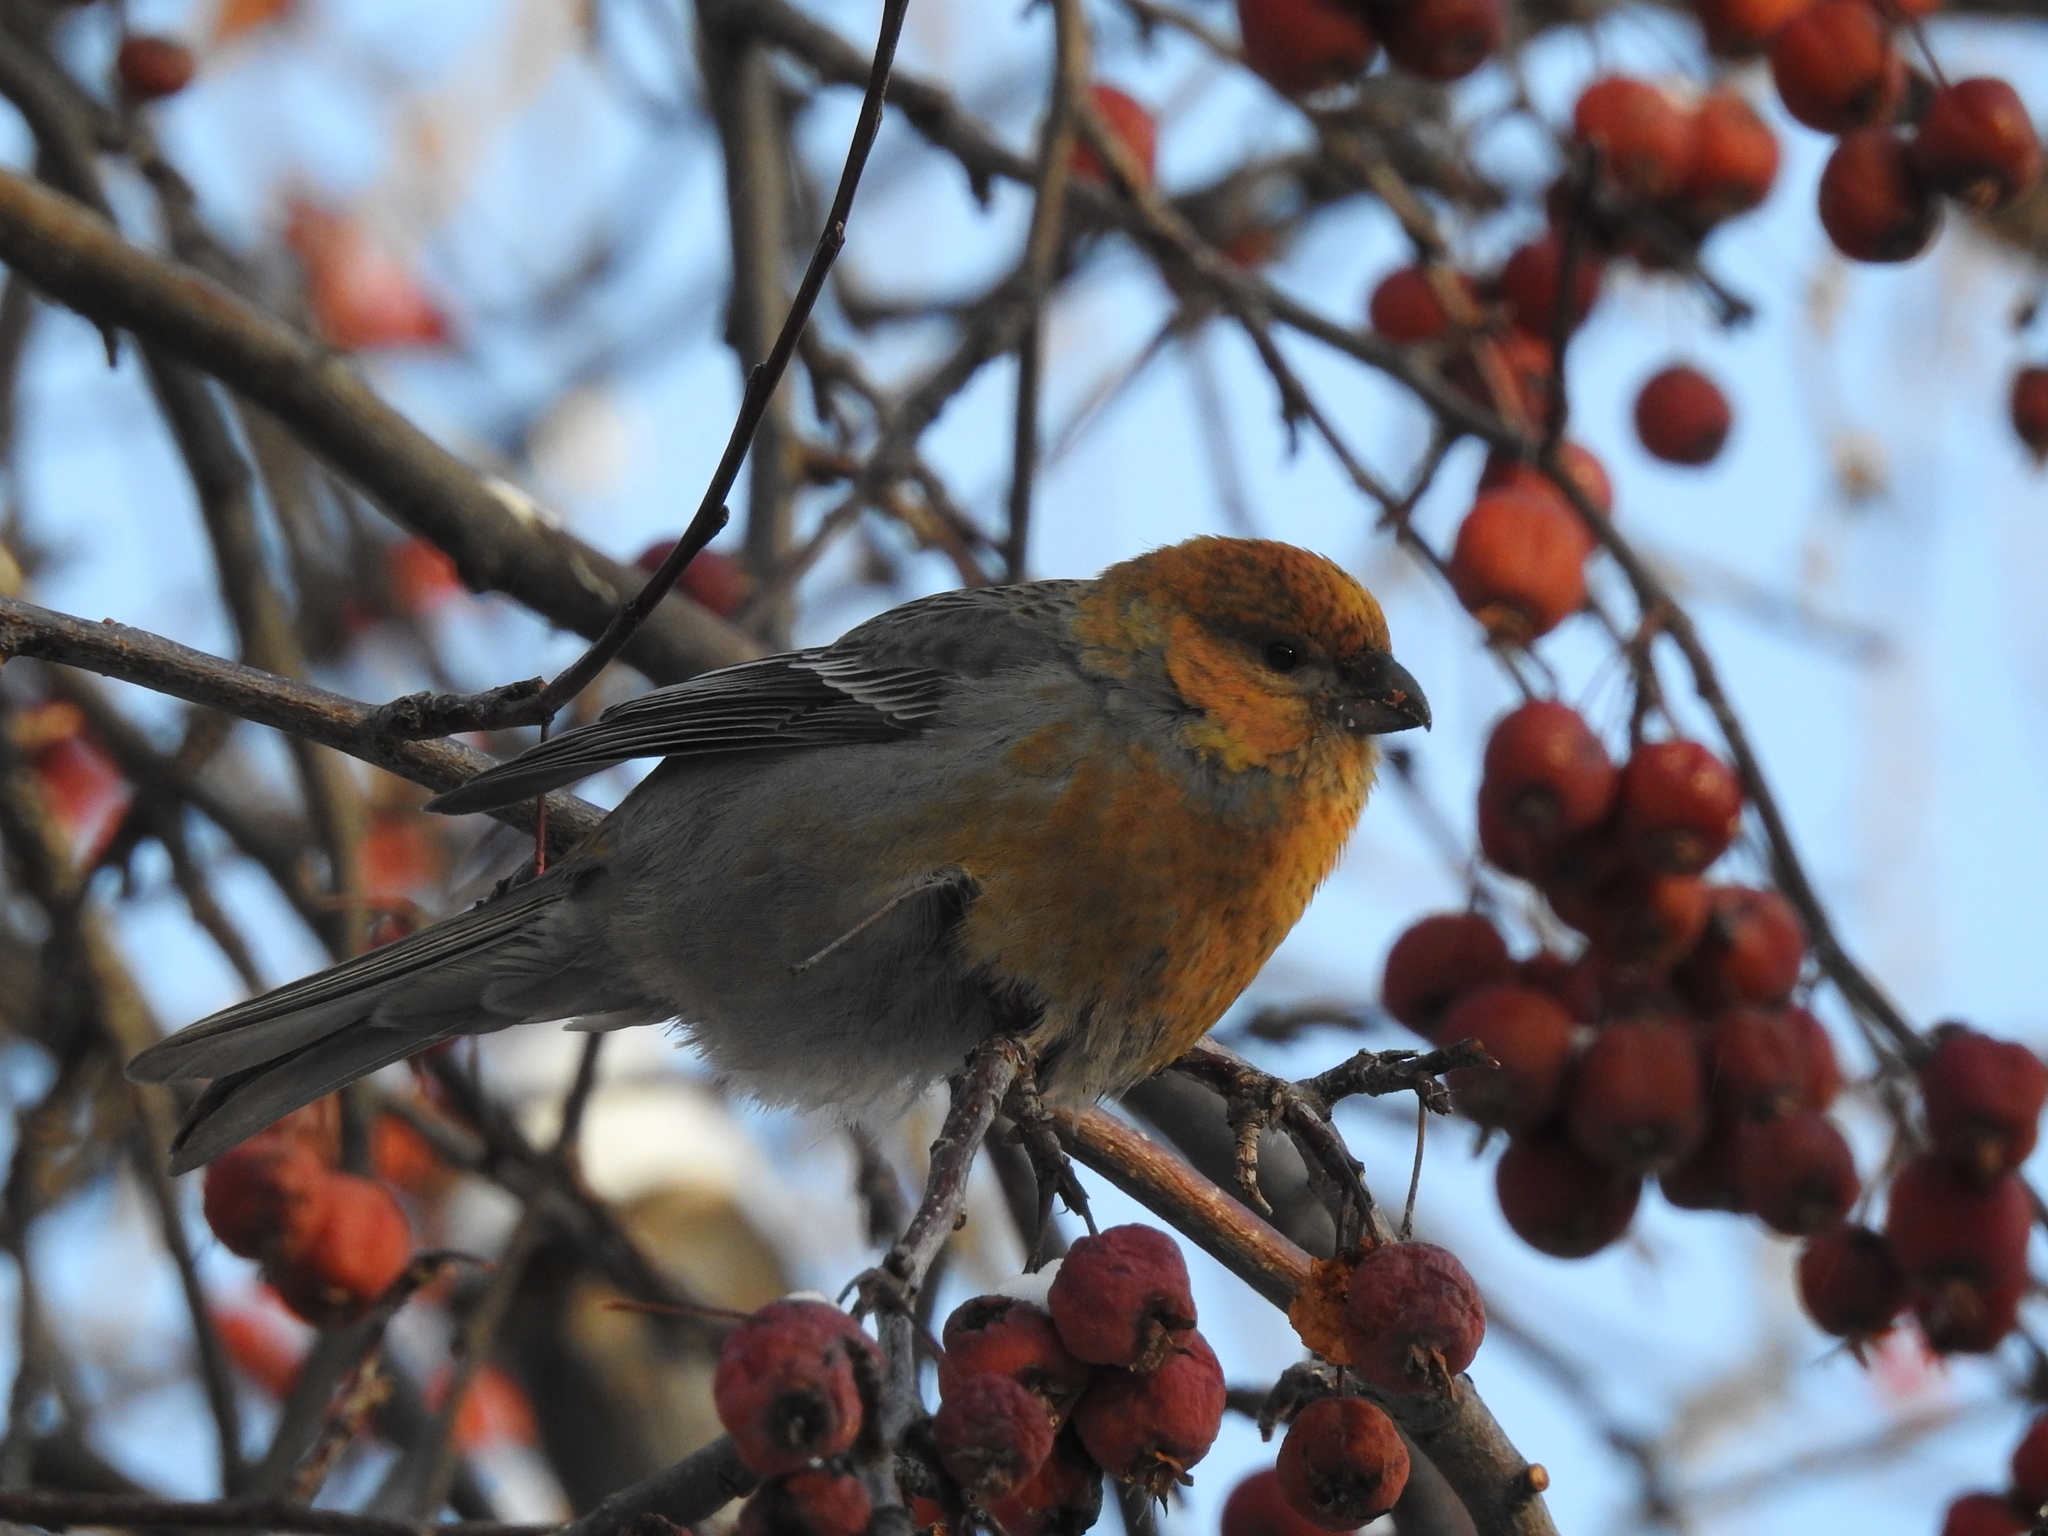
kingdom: Animalia
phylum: Chordata
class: Aves
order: Passeriformes
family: Fringillidae
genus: Pinicola
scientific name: Pinicola enucleator
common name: Pine grosbeak
